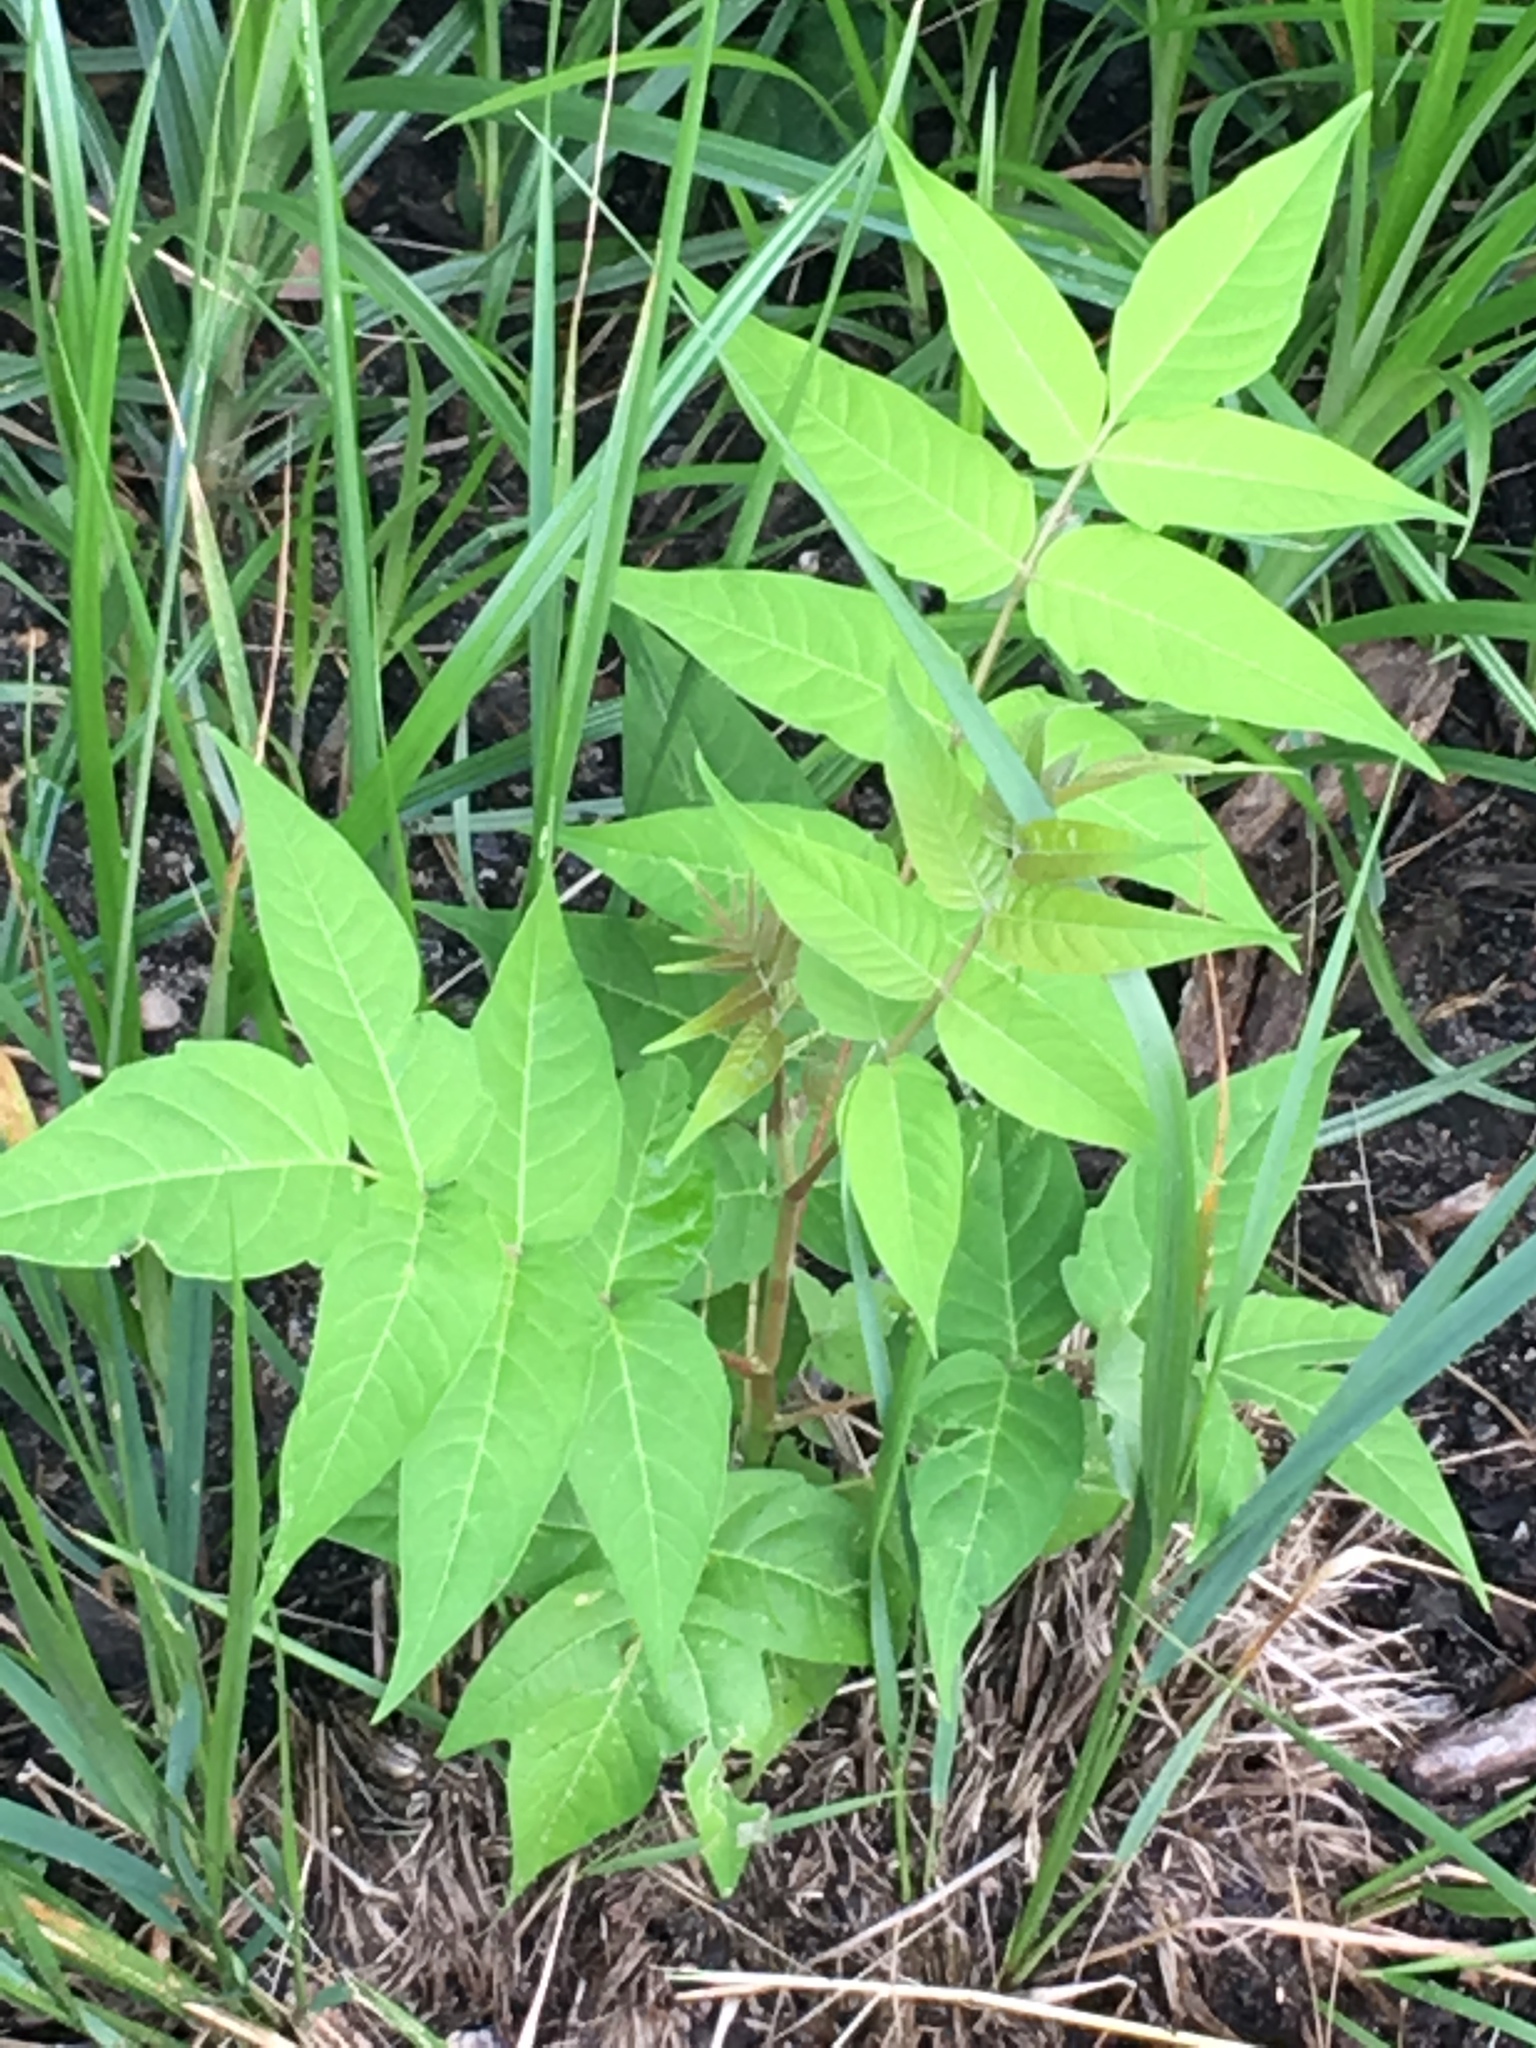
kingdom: Plantae
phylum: Tracheophyta
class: Magnoliopsida
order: Sapindales
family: Simaroubaceae
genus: Ailanthus
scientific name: Ailanthus altissima
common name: Tree-of-heaven
